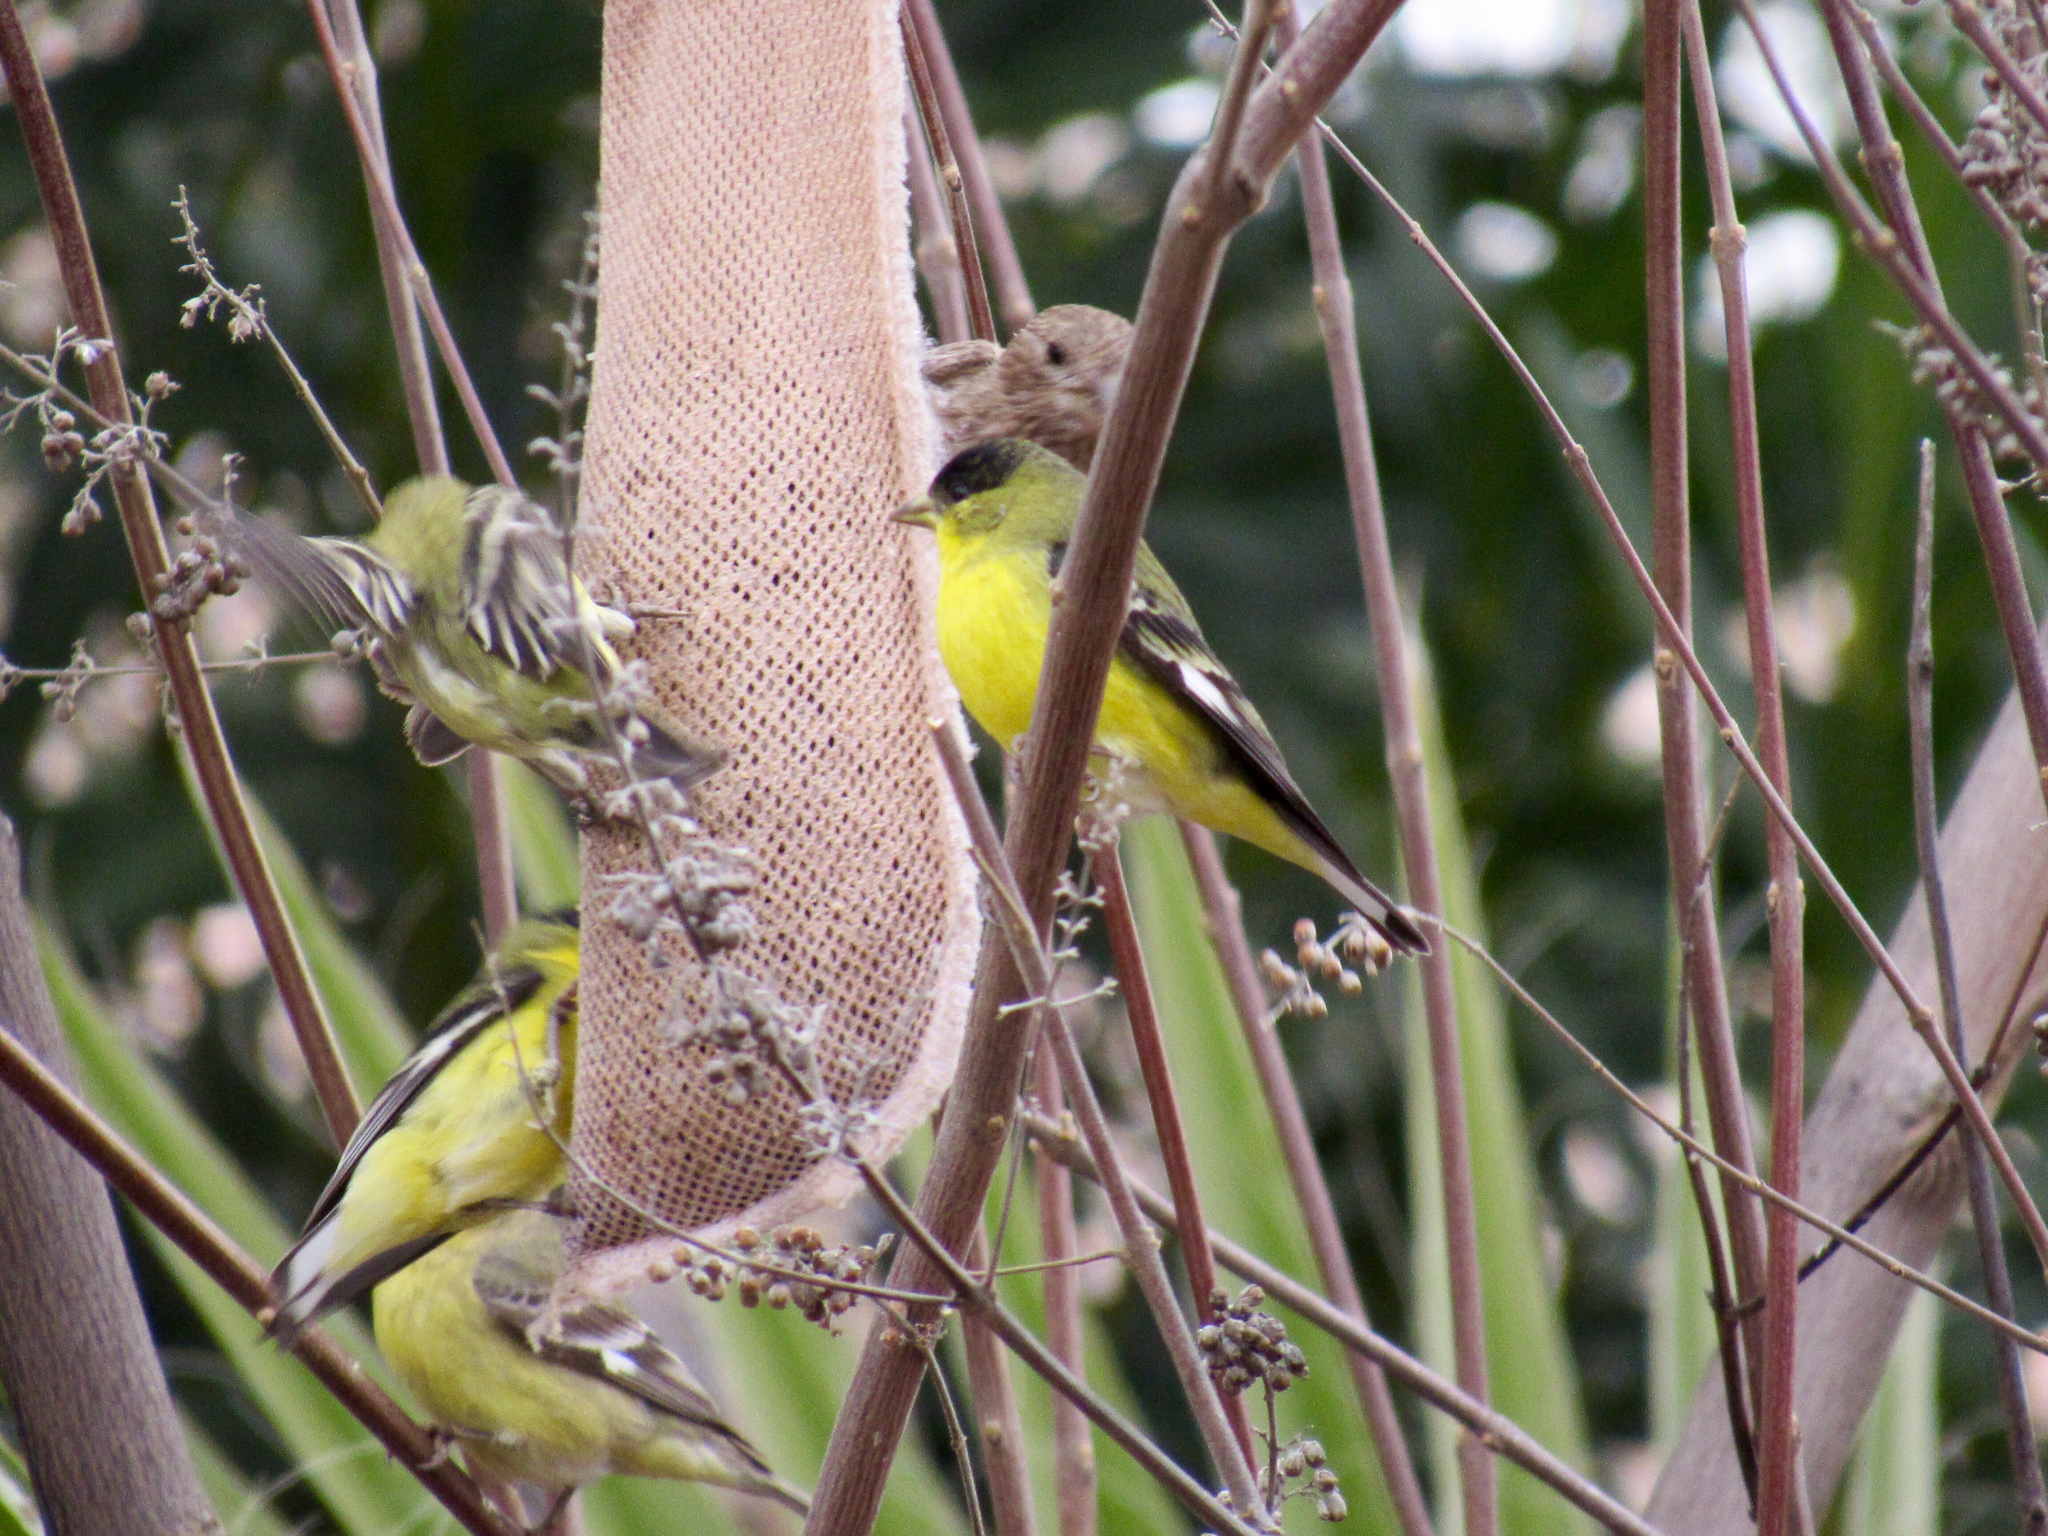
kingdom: Animalia
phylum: Chordata
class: Aves
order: Passeriformes
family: Fringillidae
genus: Spinus
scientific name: Spinus psaltria
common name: Lesser goldfinch
